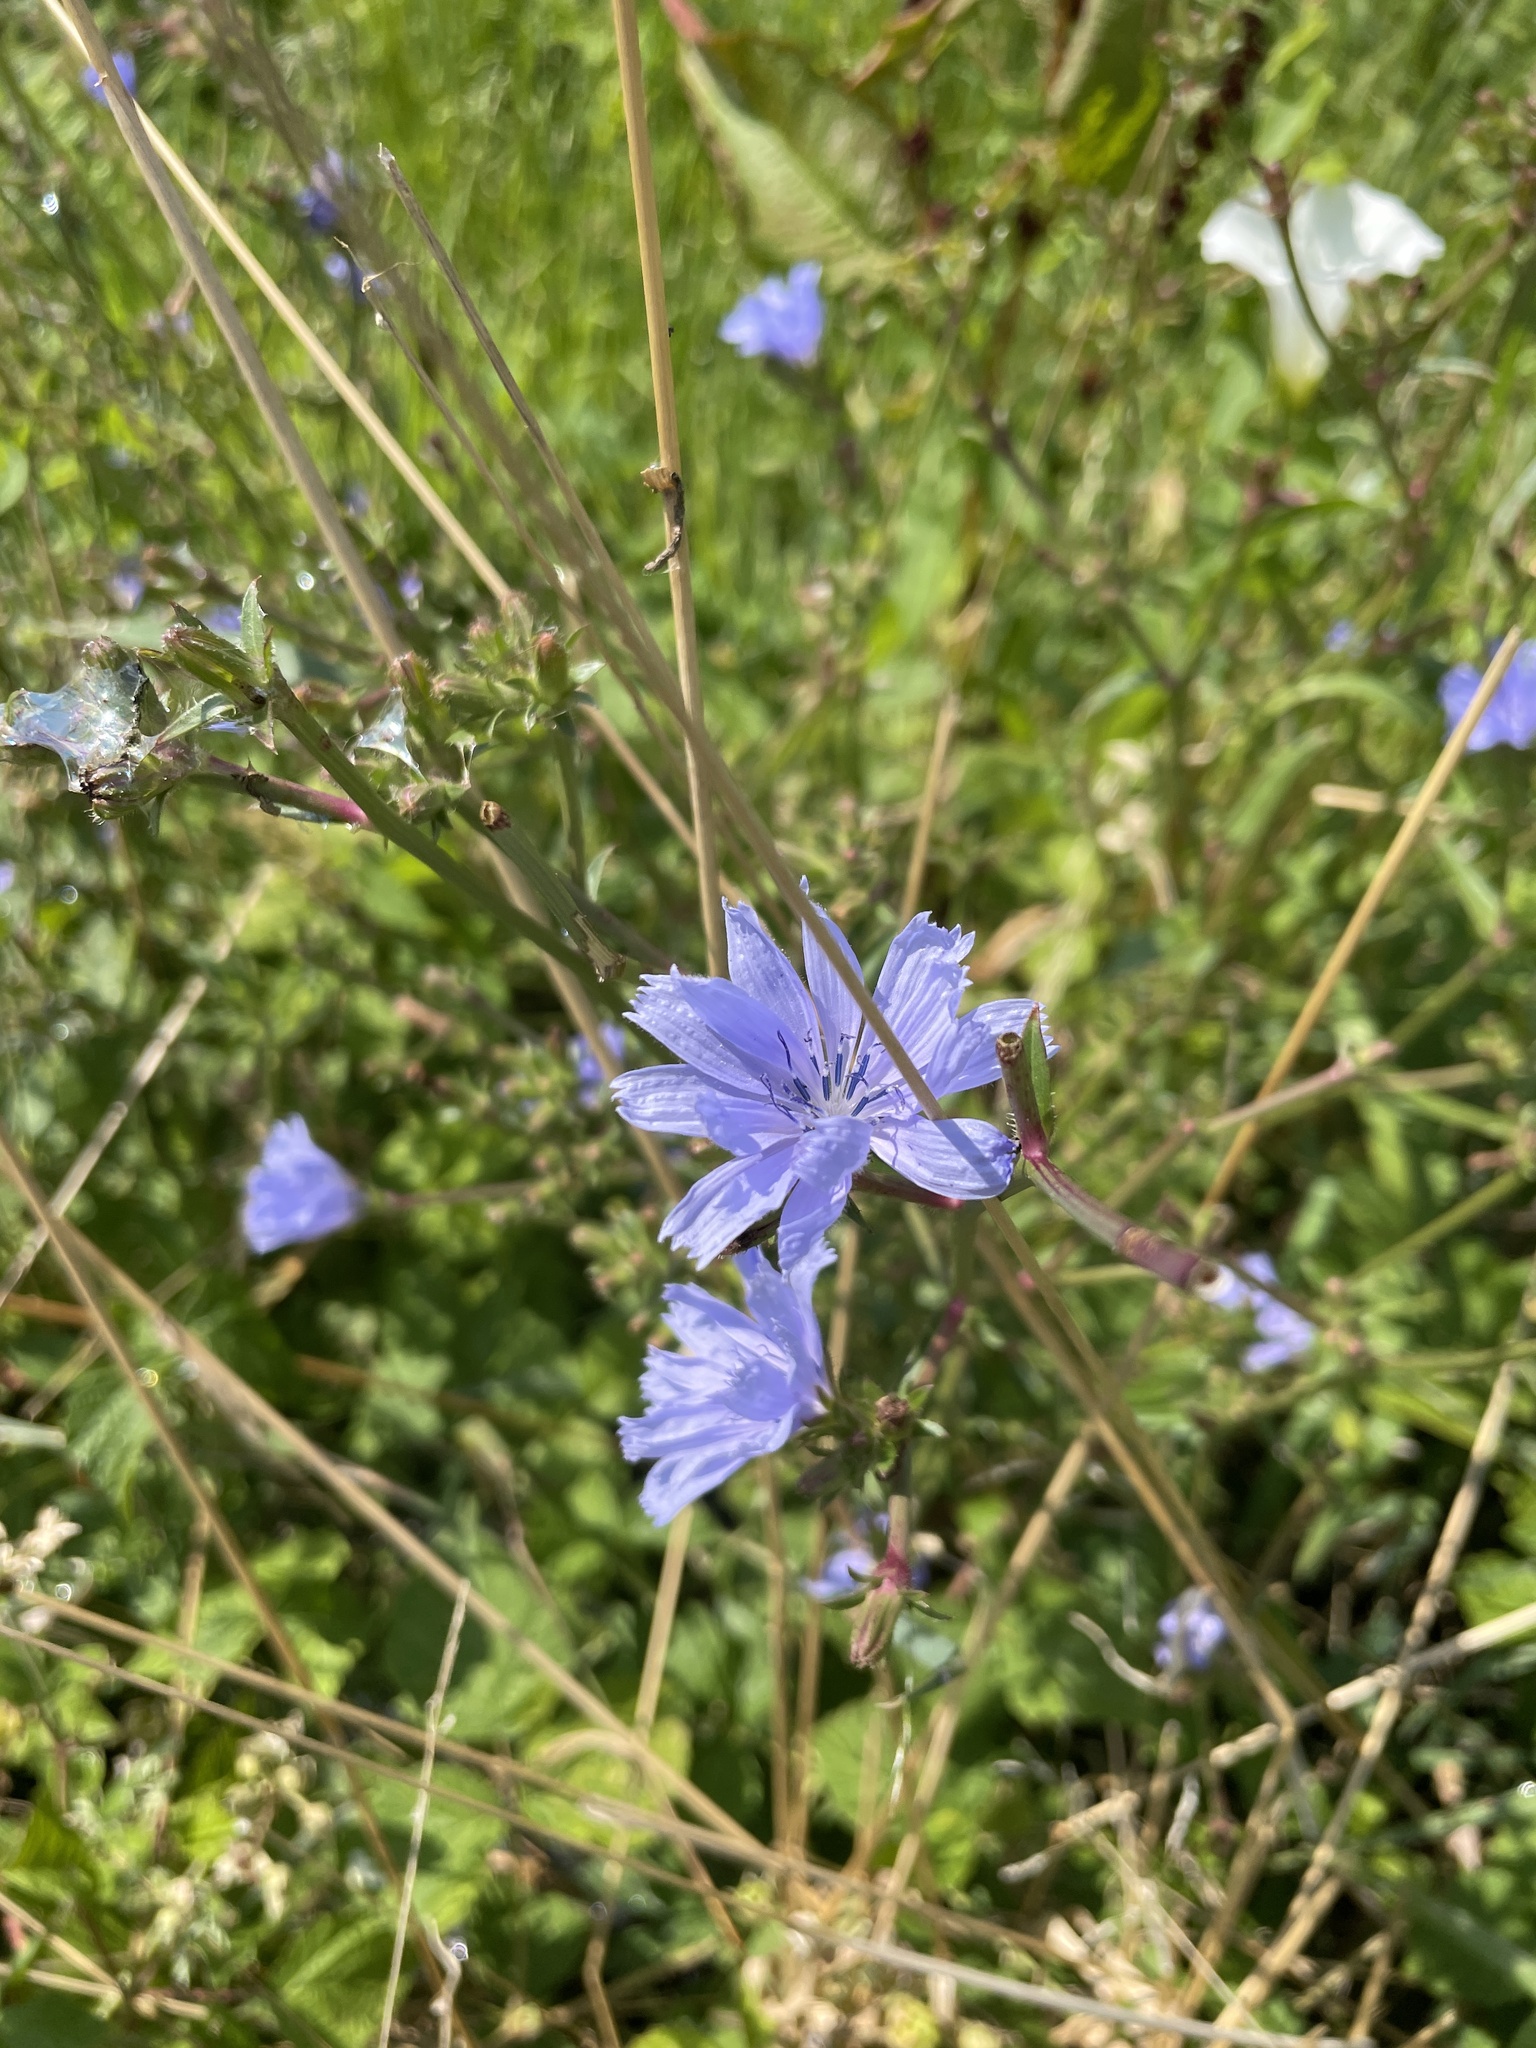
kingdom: Plantae
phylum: Tracheophyta
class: Magnoliopsida
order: Asterales
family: Asteraceae
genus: Cichorium
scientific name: Cichorium intybus
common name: Chicory
